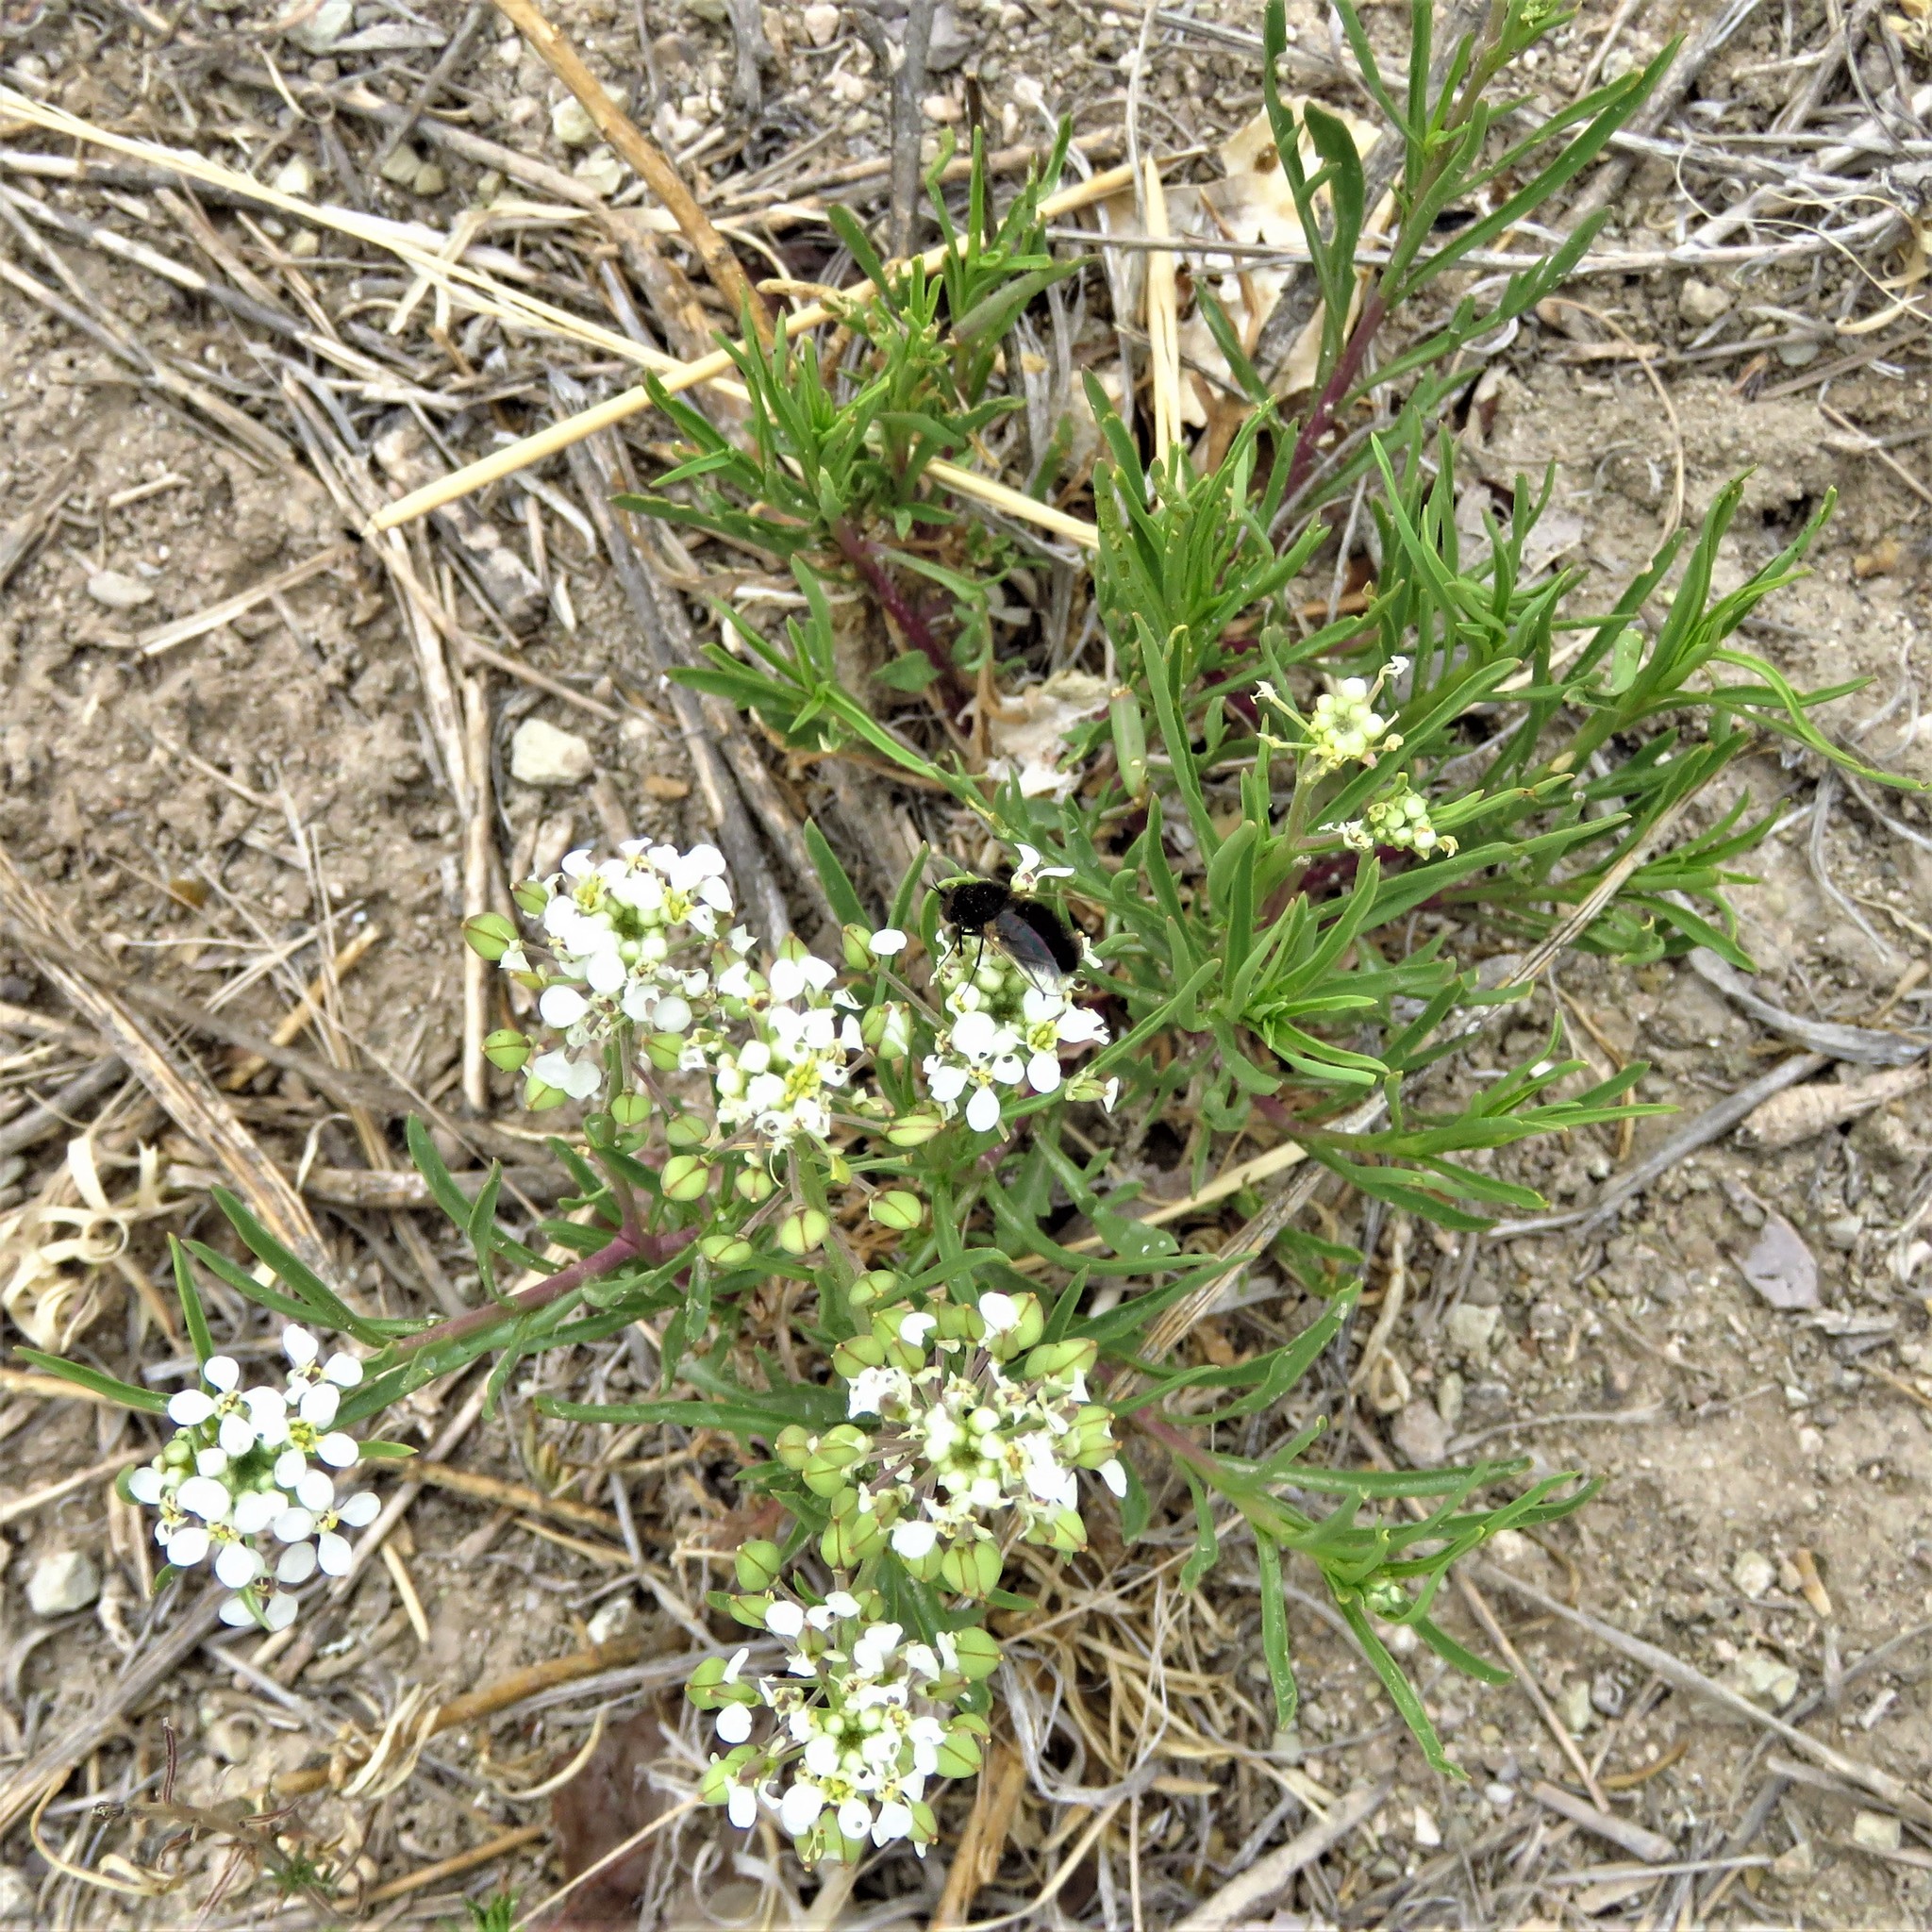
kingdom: Plantae
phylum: Tracheophyta
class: Magnoliopsida
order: Brassicales
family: Brassicaceae
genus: Lepidium
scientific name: Lepidium alyssoides
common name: Mesa pepperweed
